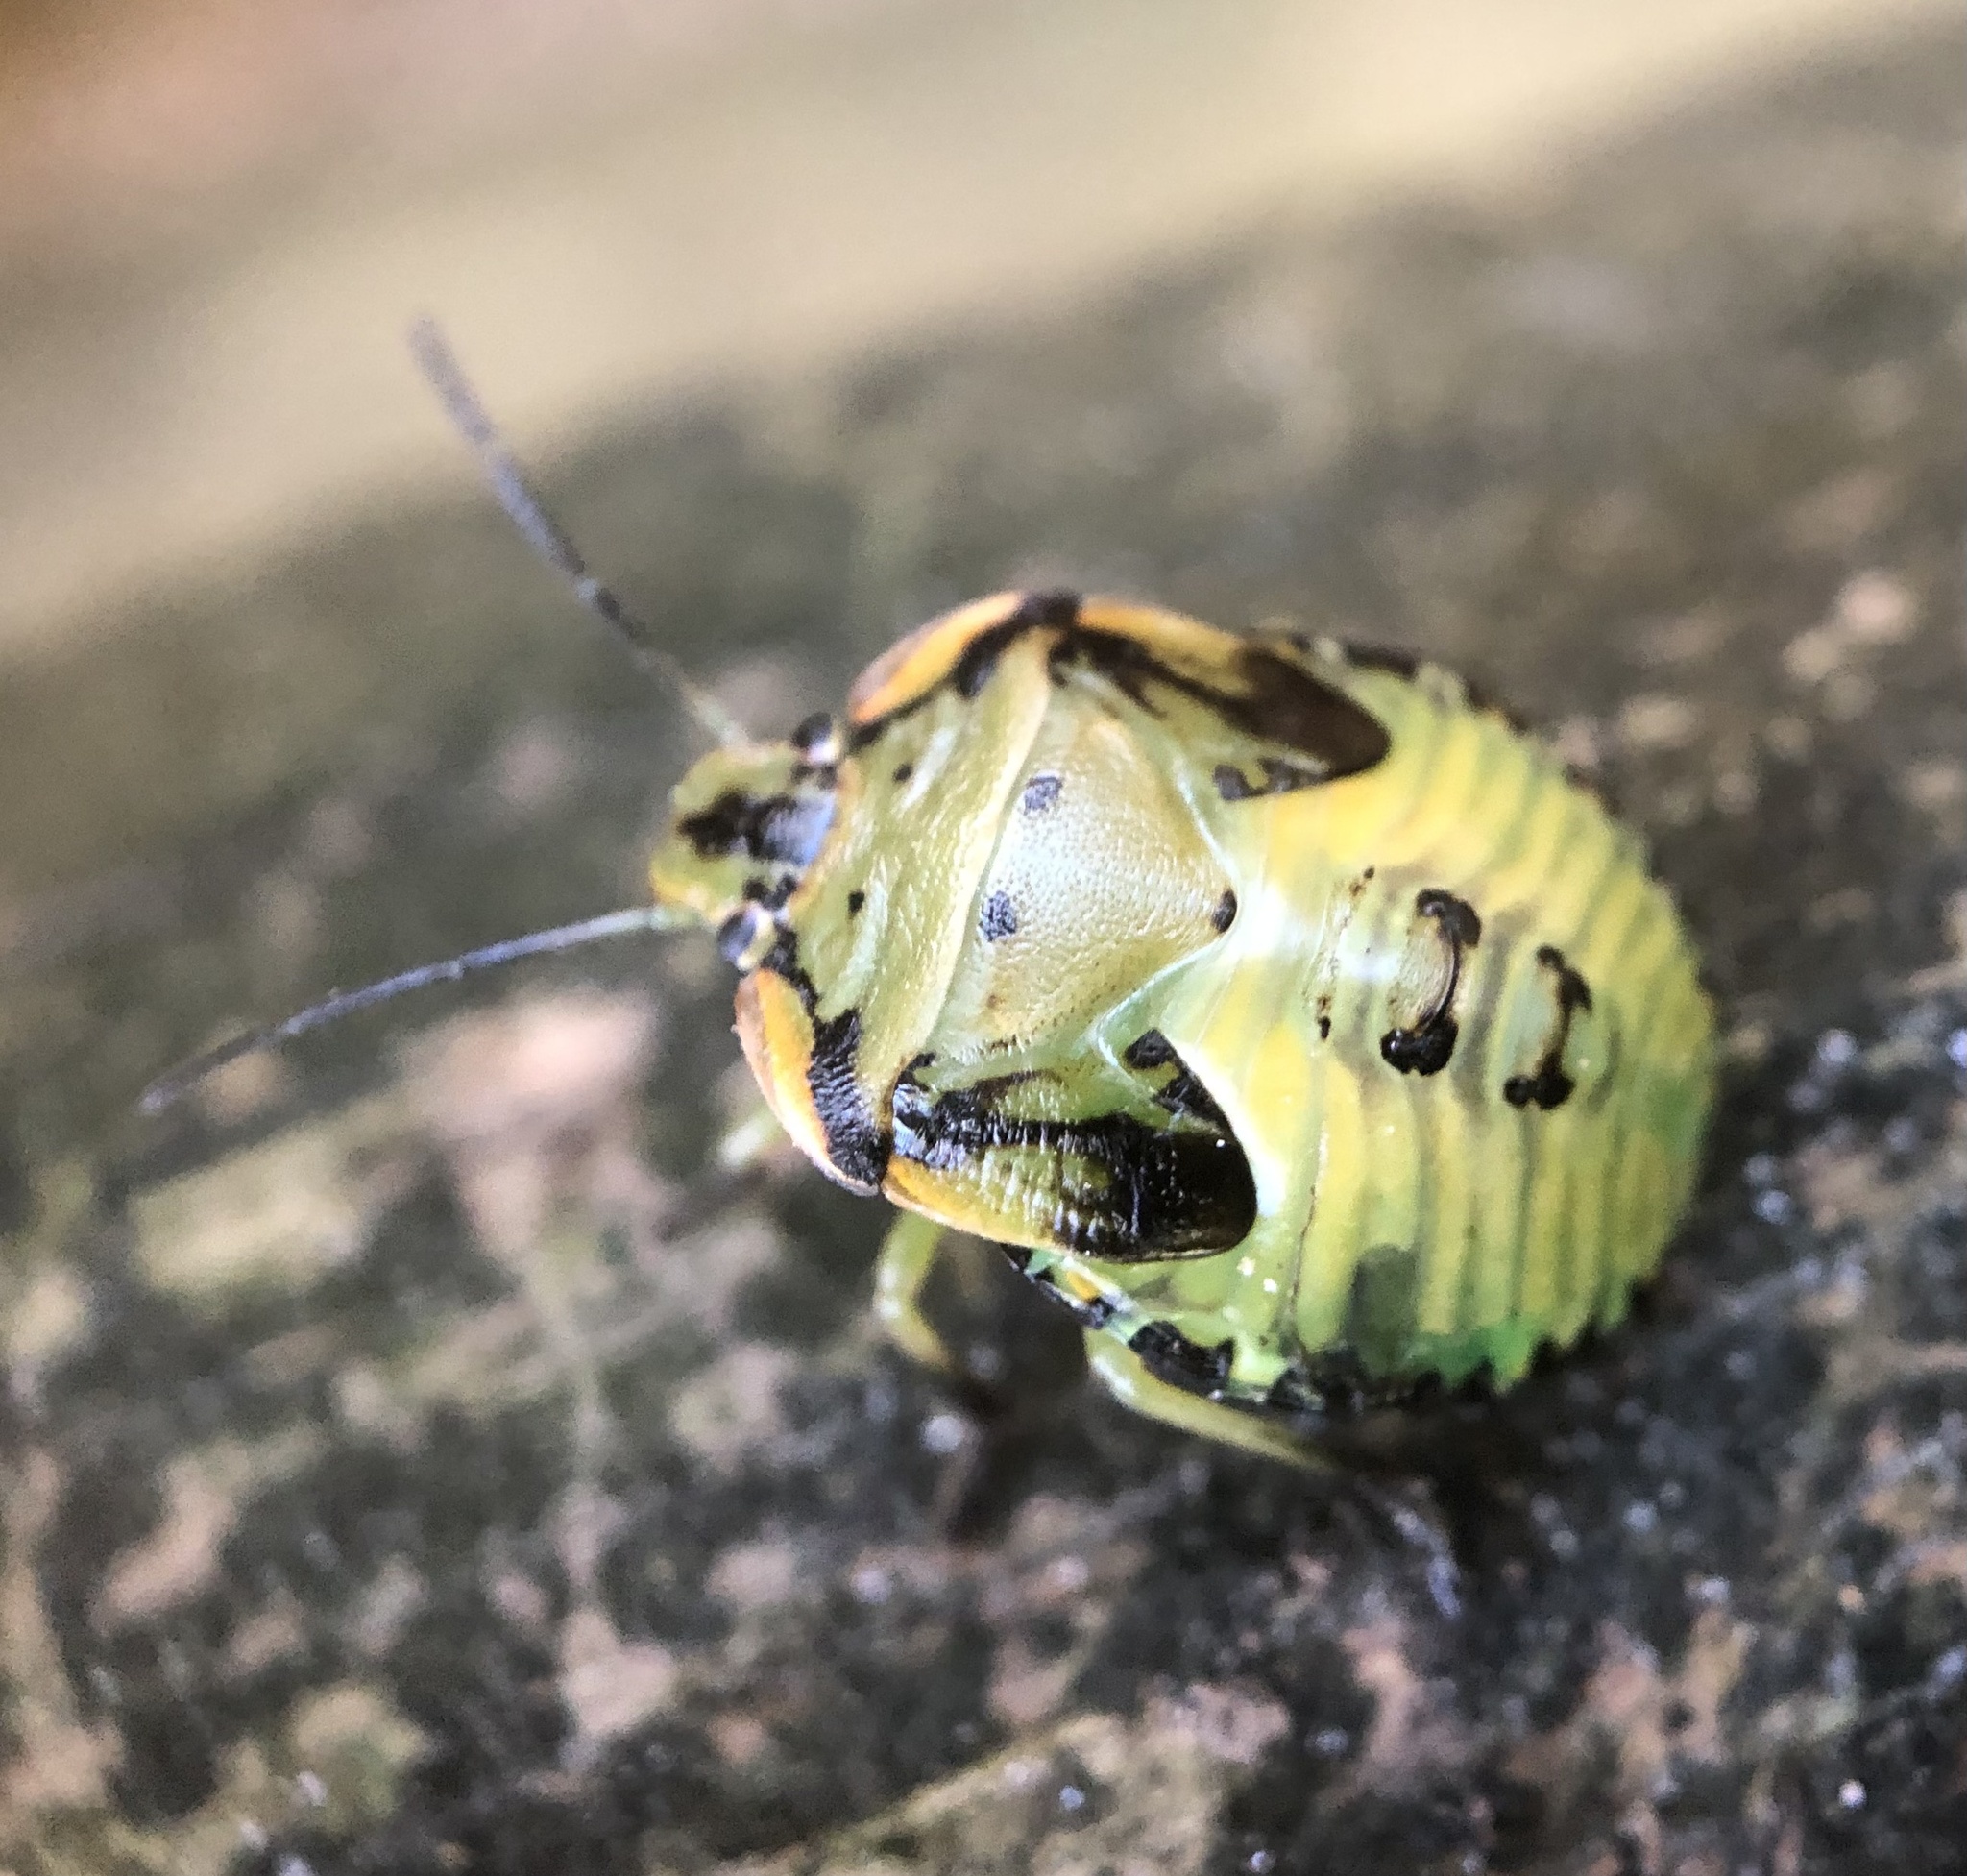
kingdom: Animalia
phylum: Arthropoda
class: Insecta
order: Hemiptera
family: Pentatomidae
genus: Chinavia
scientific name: Chinavia hilaris
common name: Green stink bug
